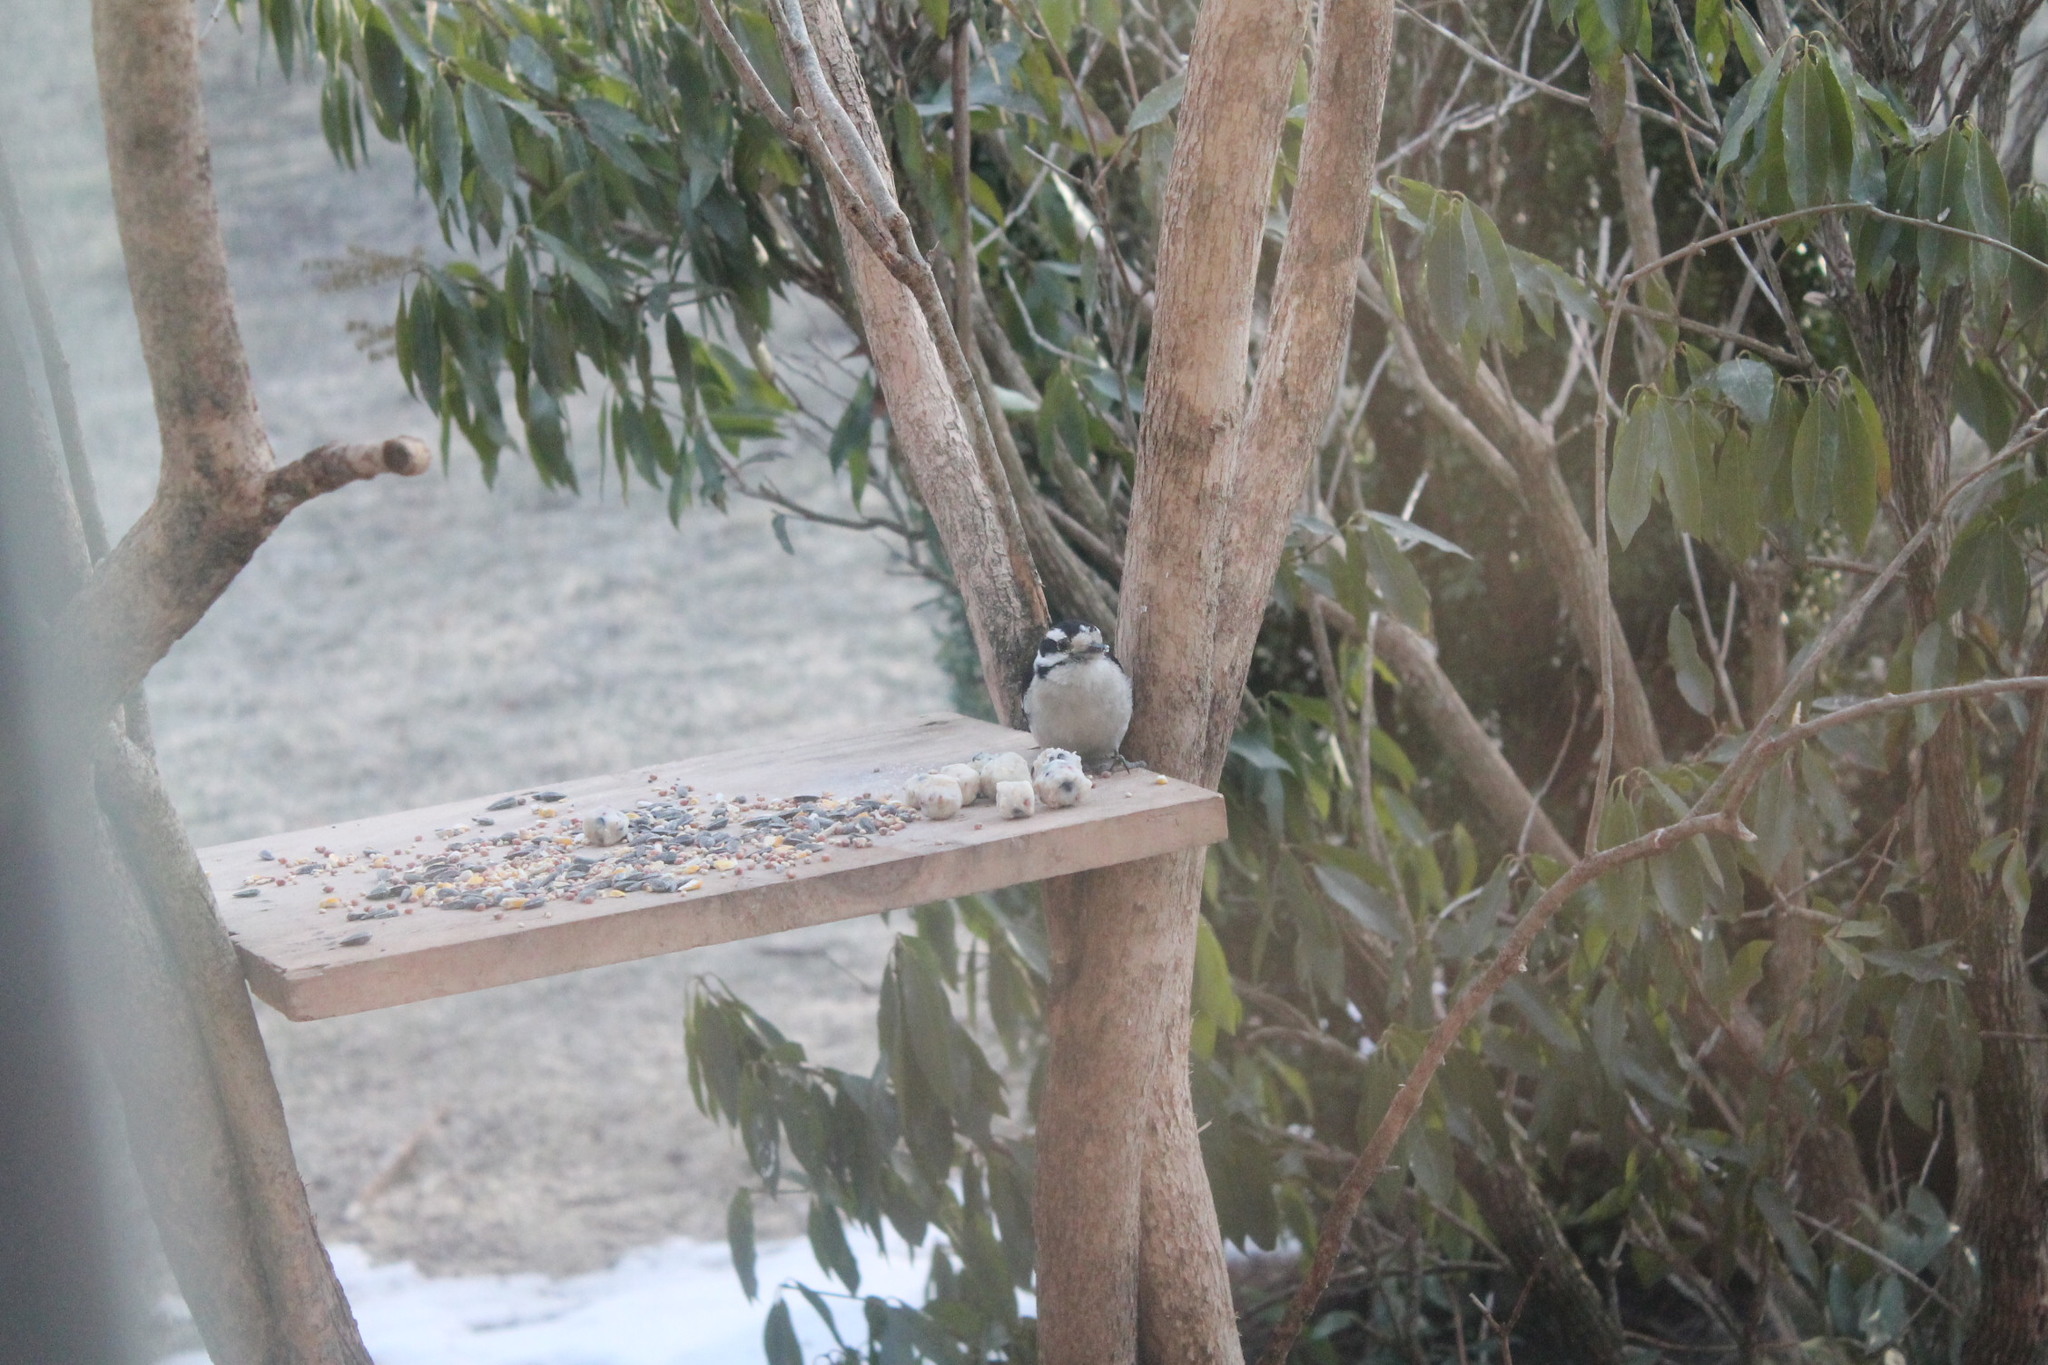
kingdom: Animalia
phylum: Chordata
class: Aves
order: Piciformes
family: Picidae
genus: Dryobates
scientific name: Dryobates pubescens
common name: Downy woodpecker
